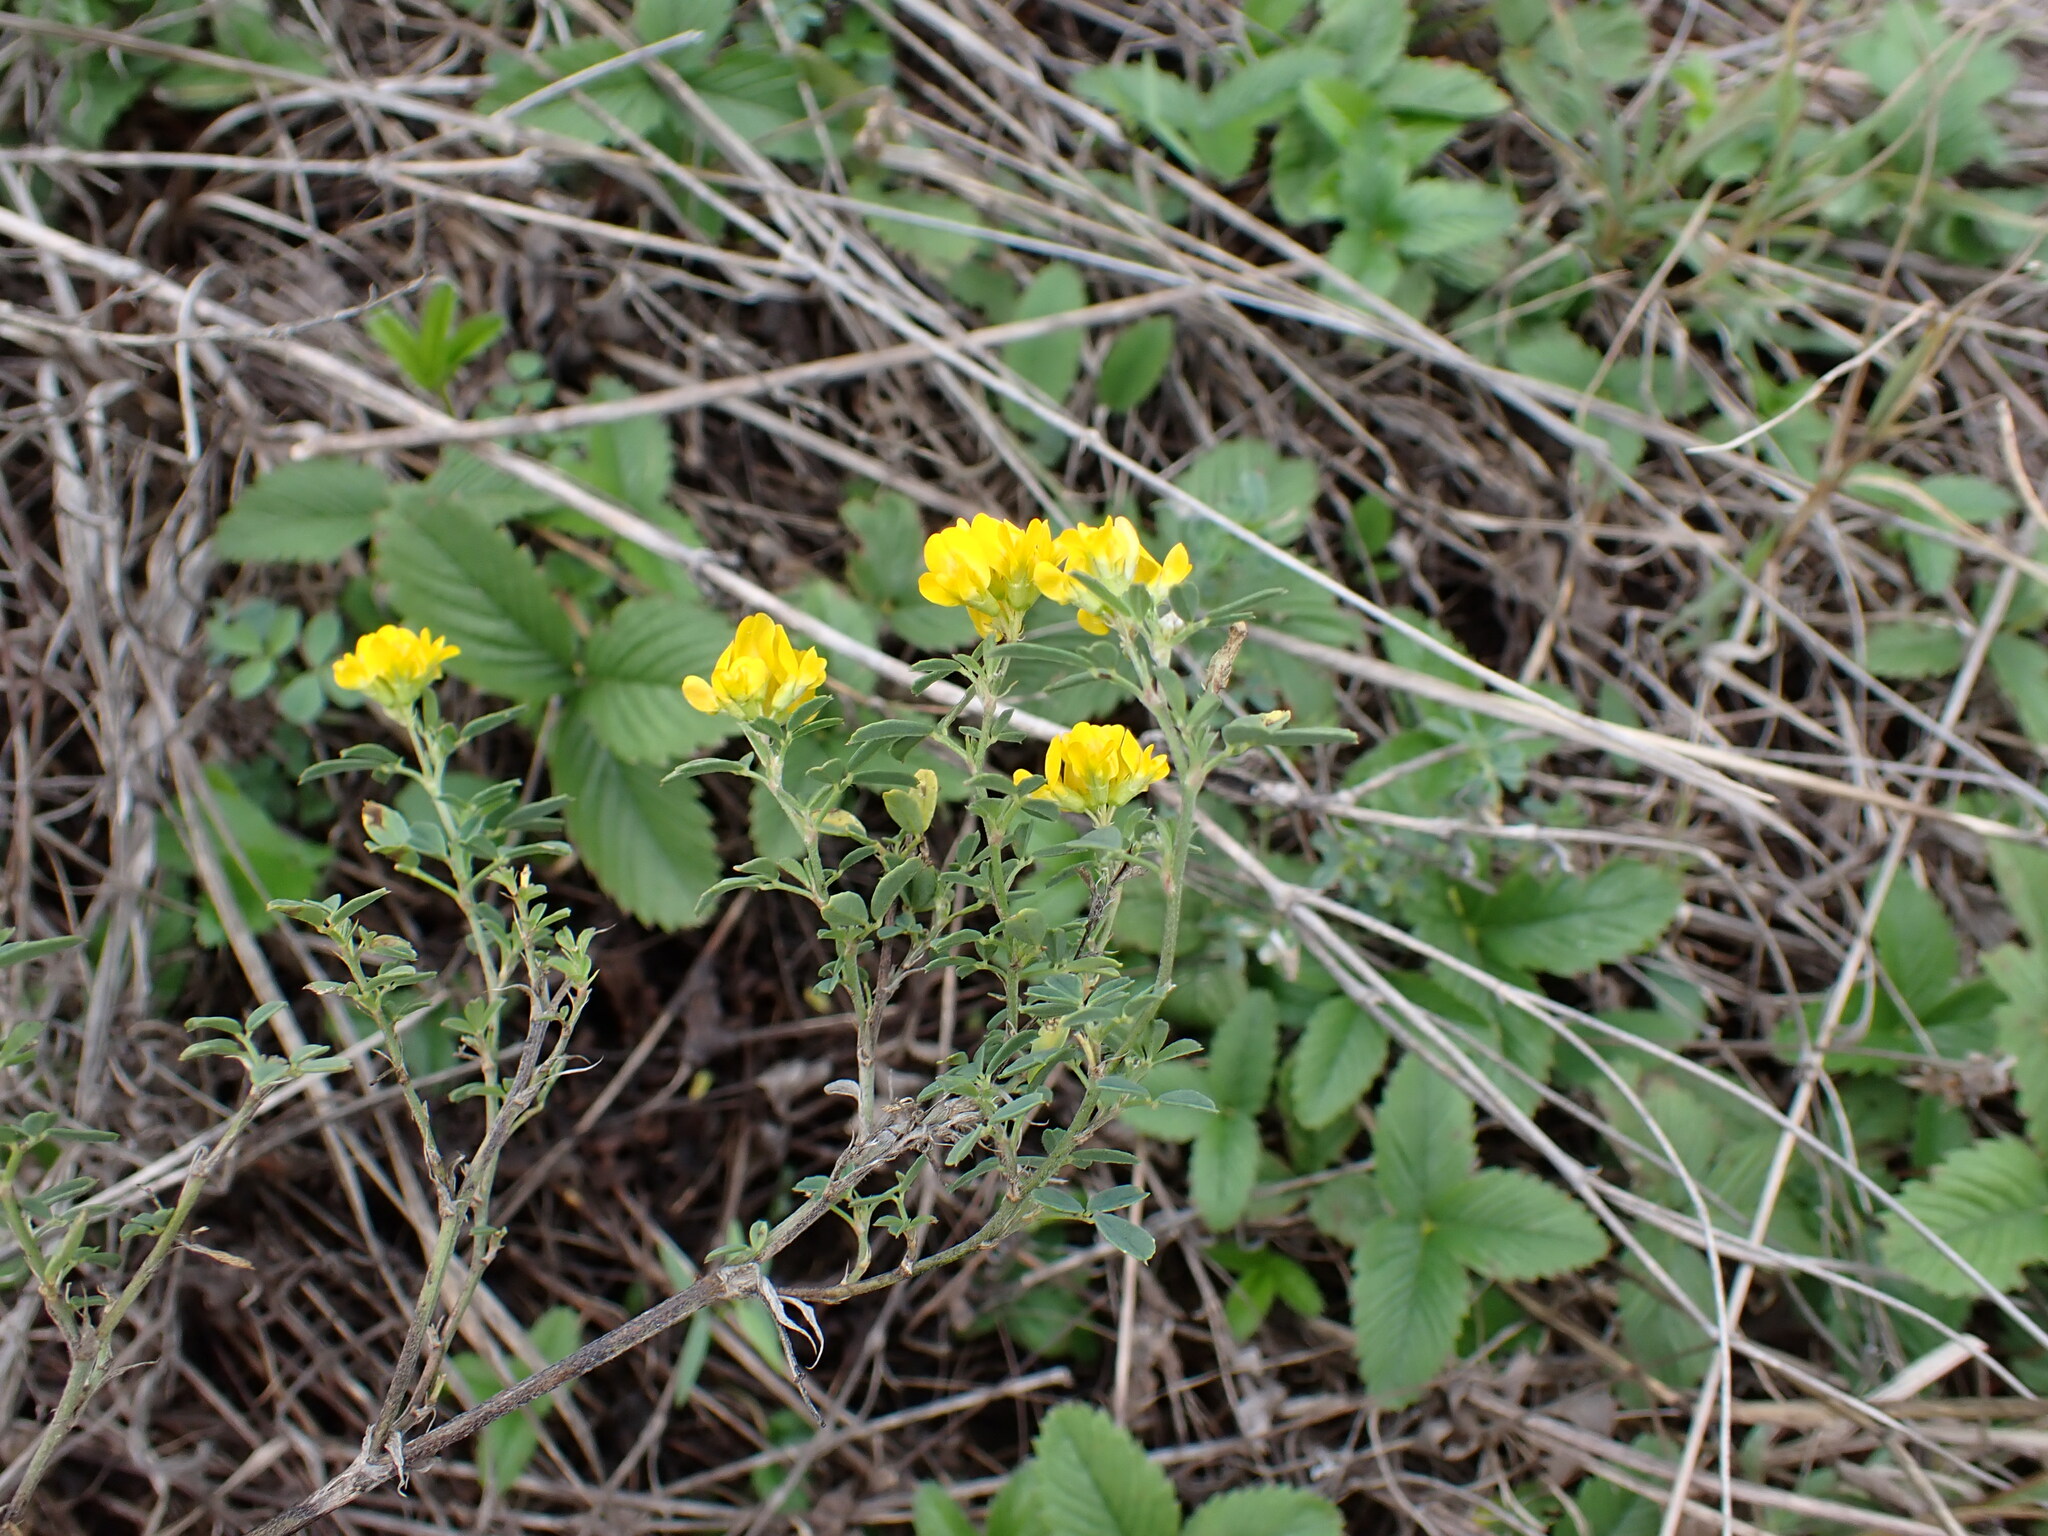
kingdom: Plantae
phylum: Tracheophyta
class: Magnoliopsida
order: Fabales
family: Fabaceae
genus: Medicago
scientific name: Medicago falcata
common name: Sickle medick
